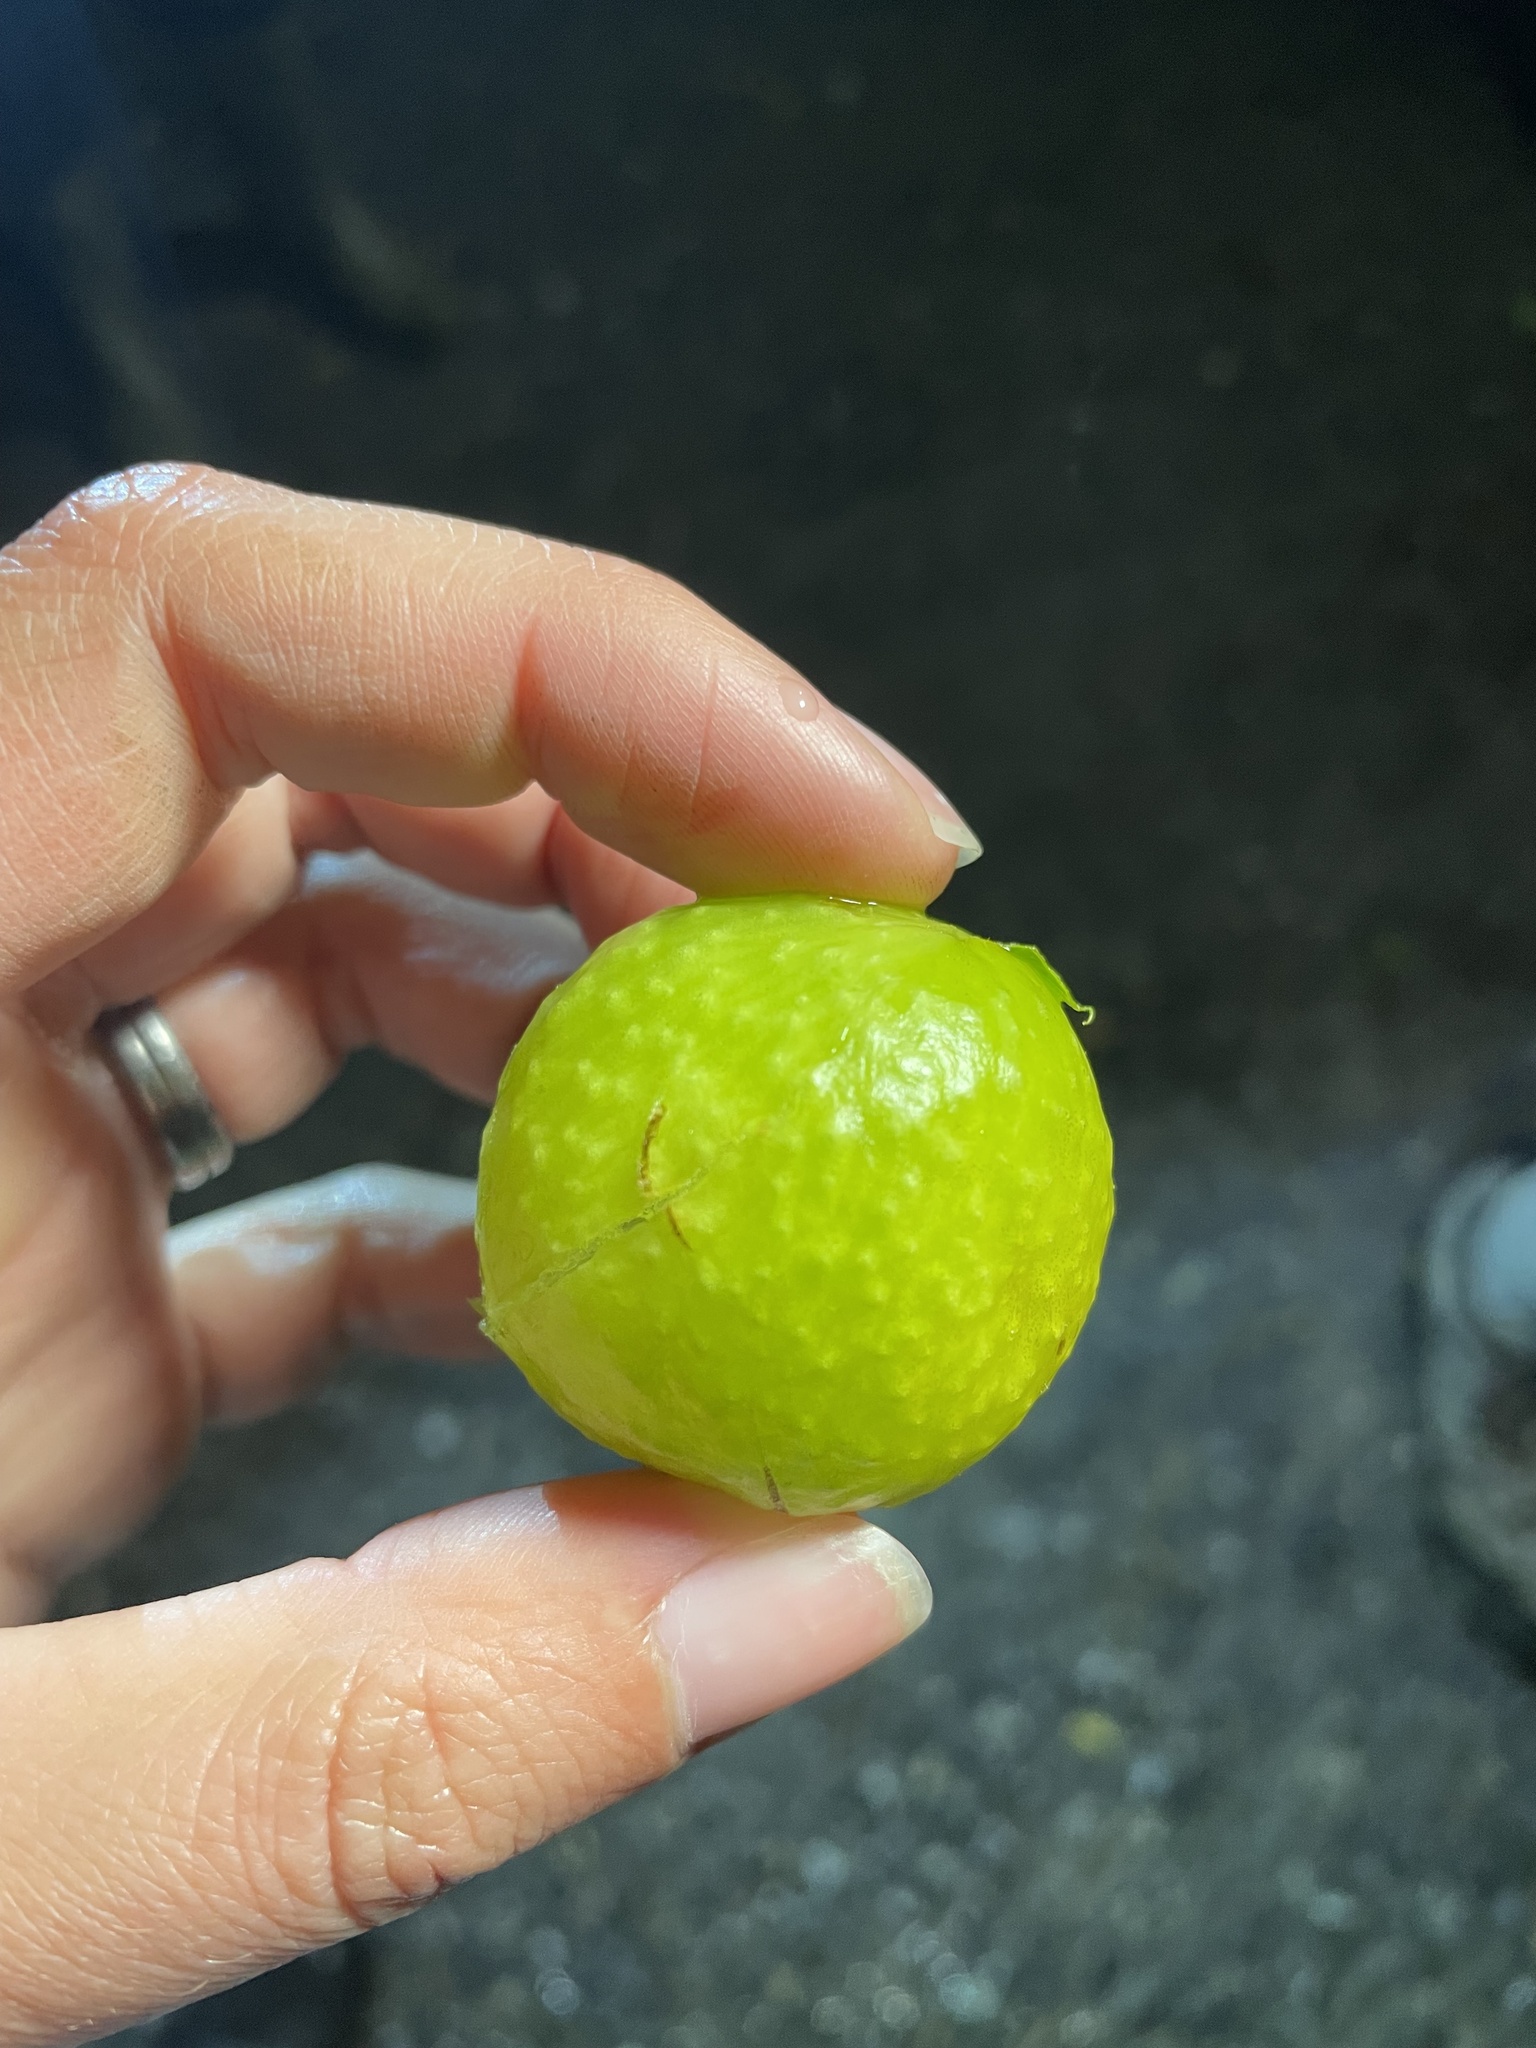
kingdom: Animalia
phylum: Arthropoda
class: Insecta
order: Hymenoptera
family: Cynipidae
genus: Amphibolips
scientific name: Amphibolips
